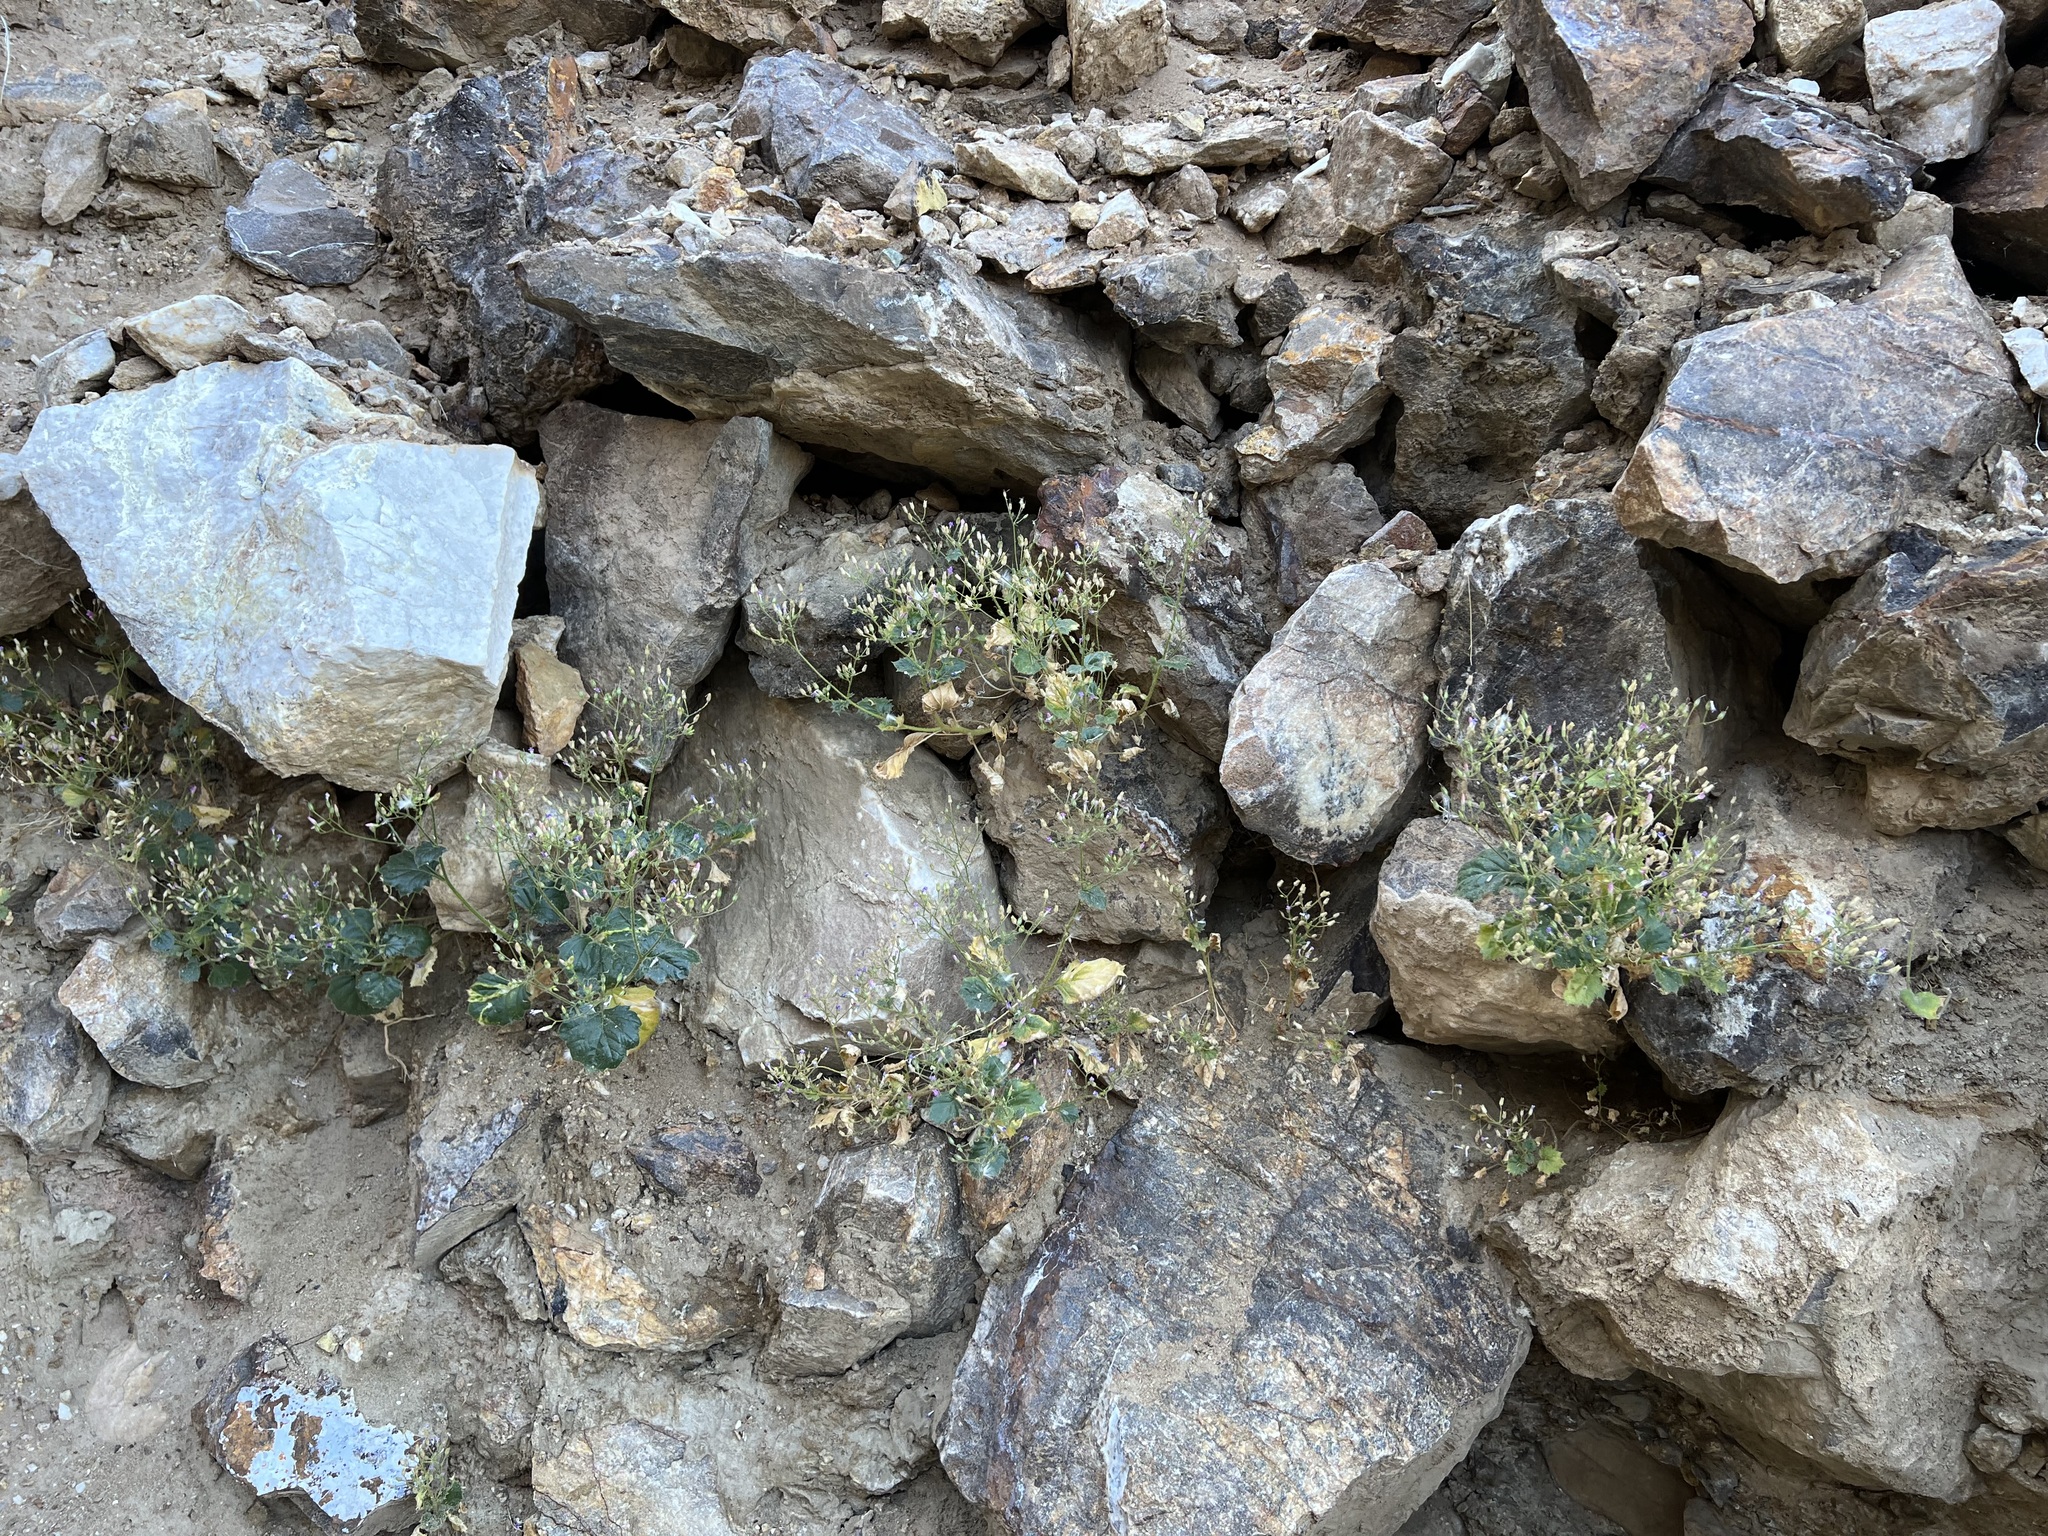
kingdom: Plantae
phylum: Tracheophyta
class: Magnoliopsida
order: Ericales
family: Polemoniaceae
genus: Aliciella
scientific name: Aliciella latifolia
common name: Broad-leaf gilia
